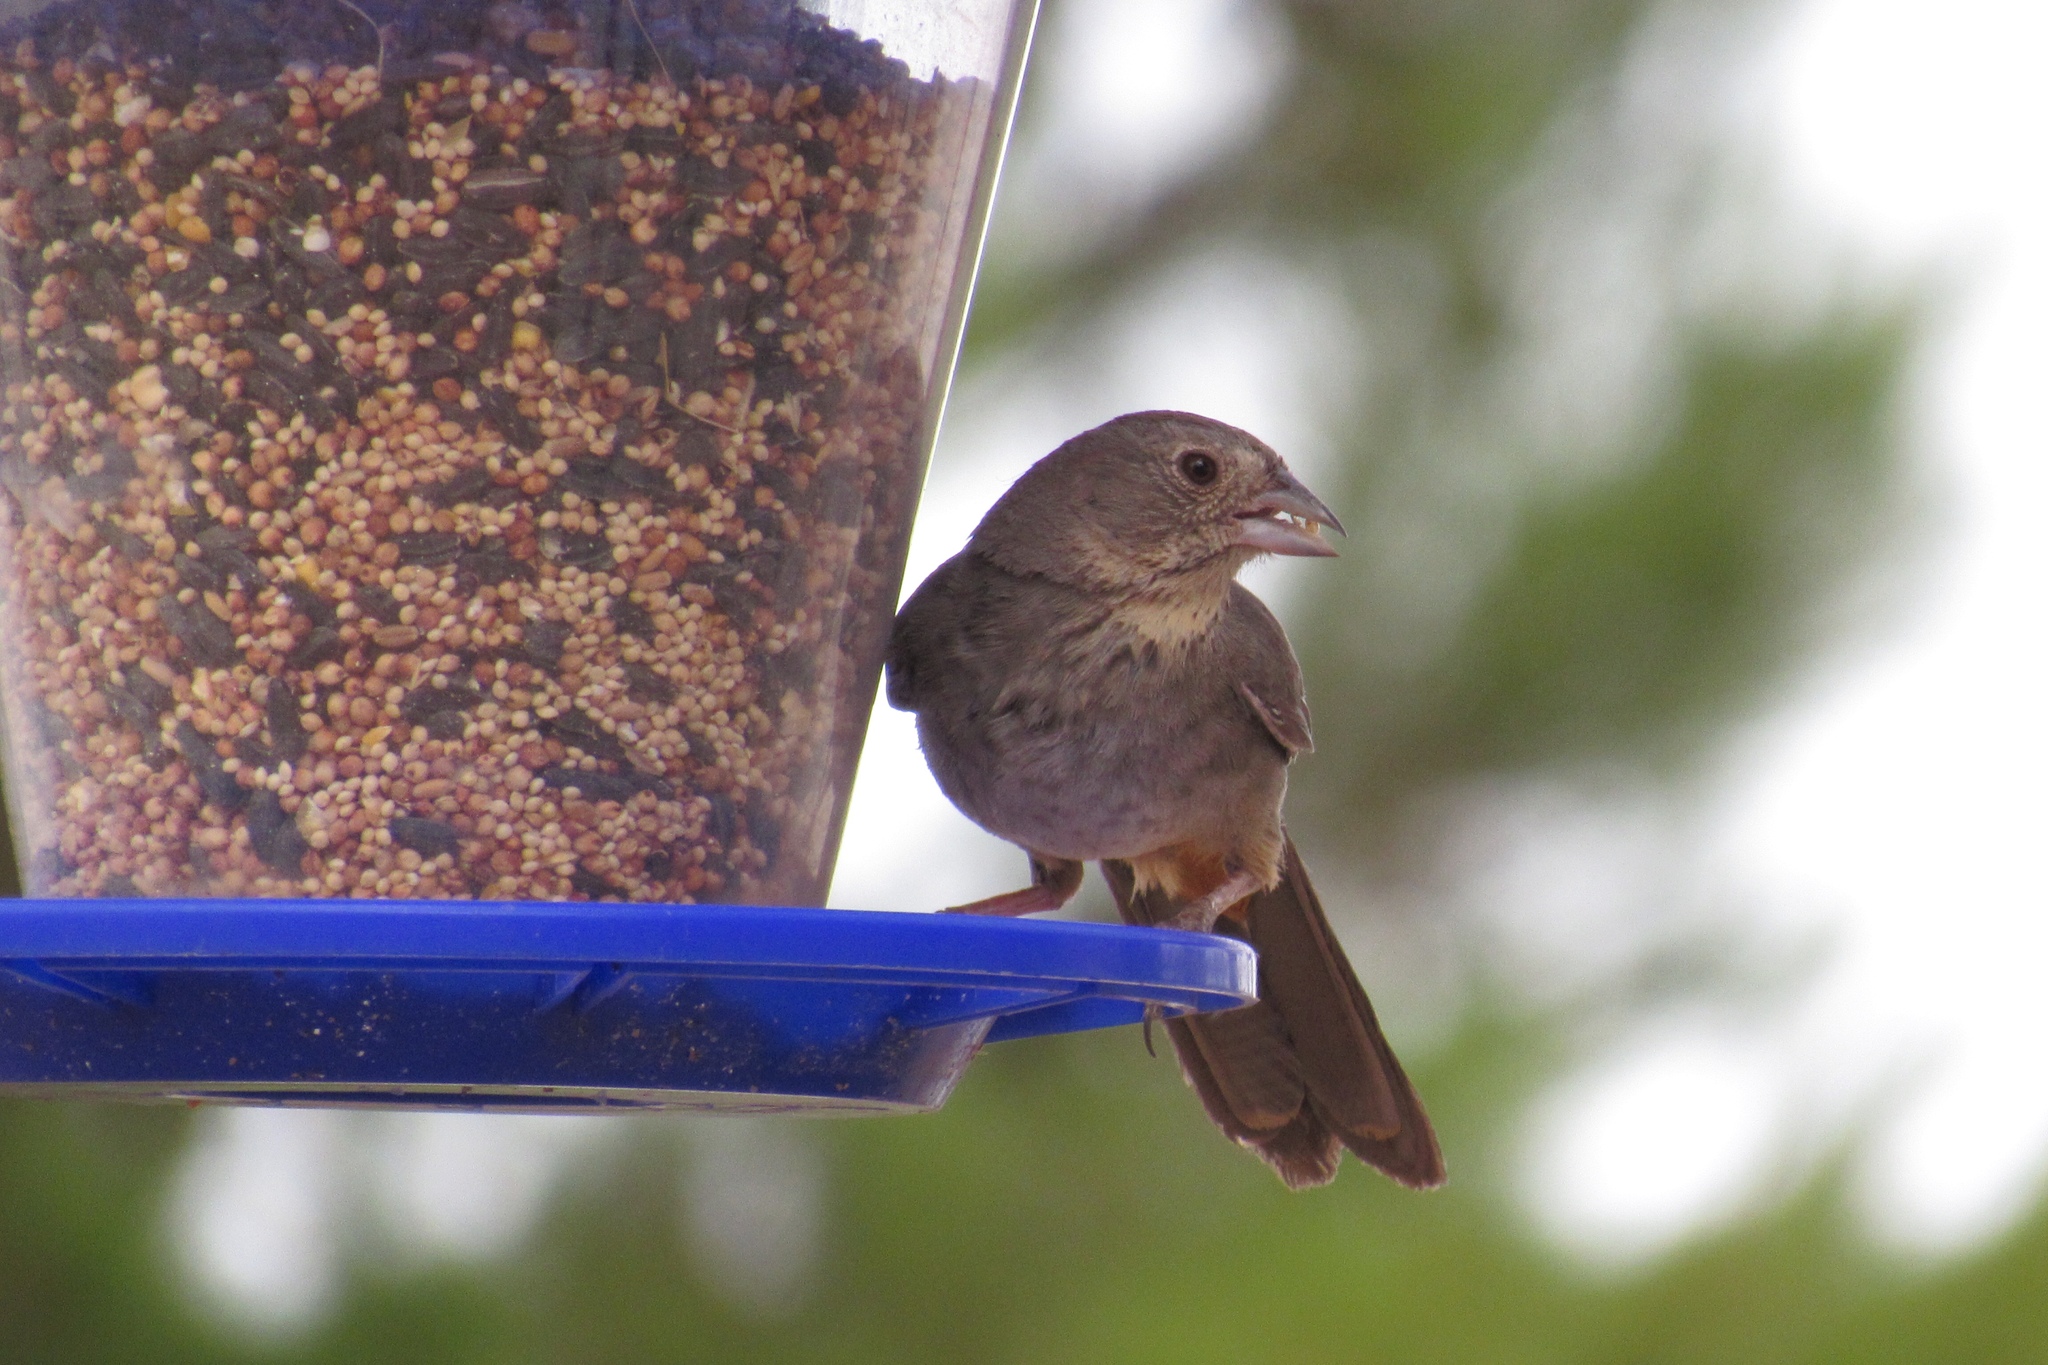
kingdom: Animalia
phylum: Chordata
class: Aves
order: Passeriformes
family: Passerellidae
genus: Melozone
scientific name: Melozone fusca
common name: Canyon towhee
